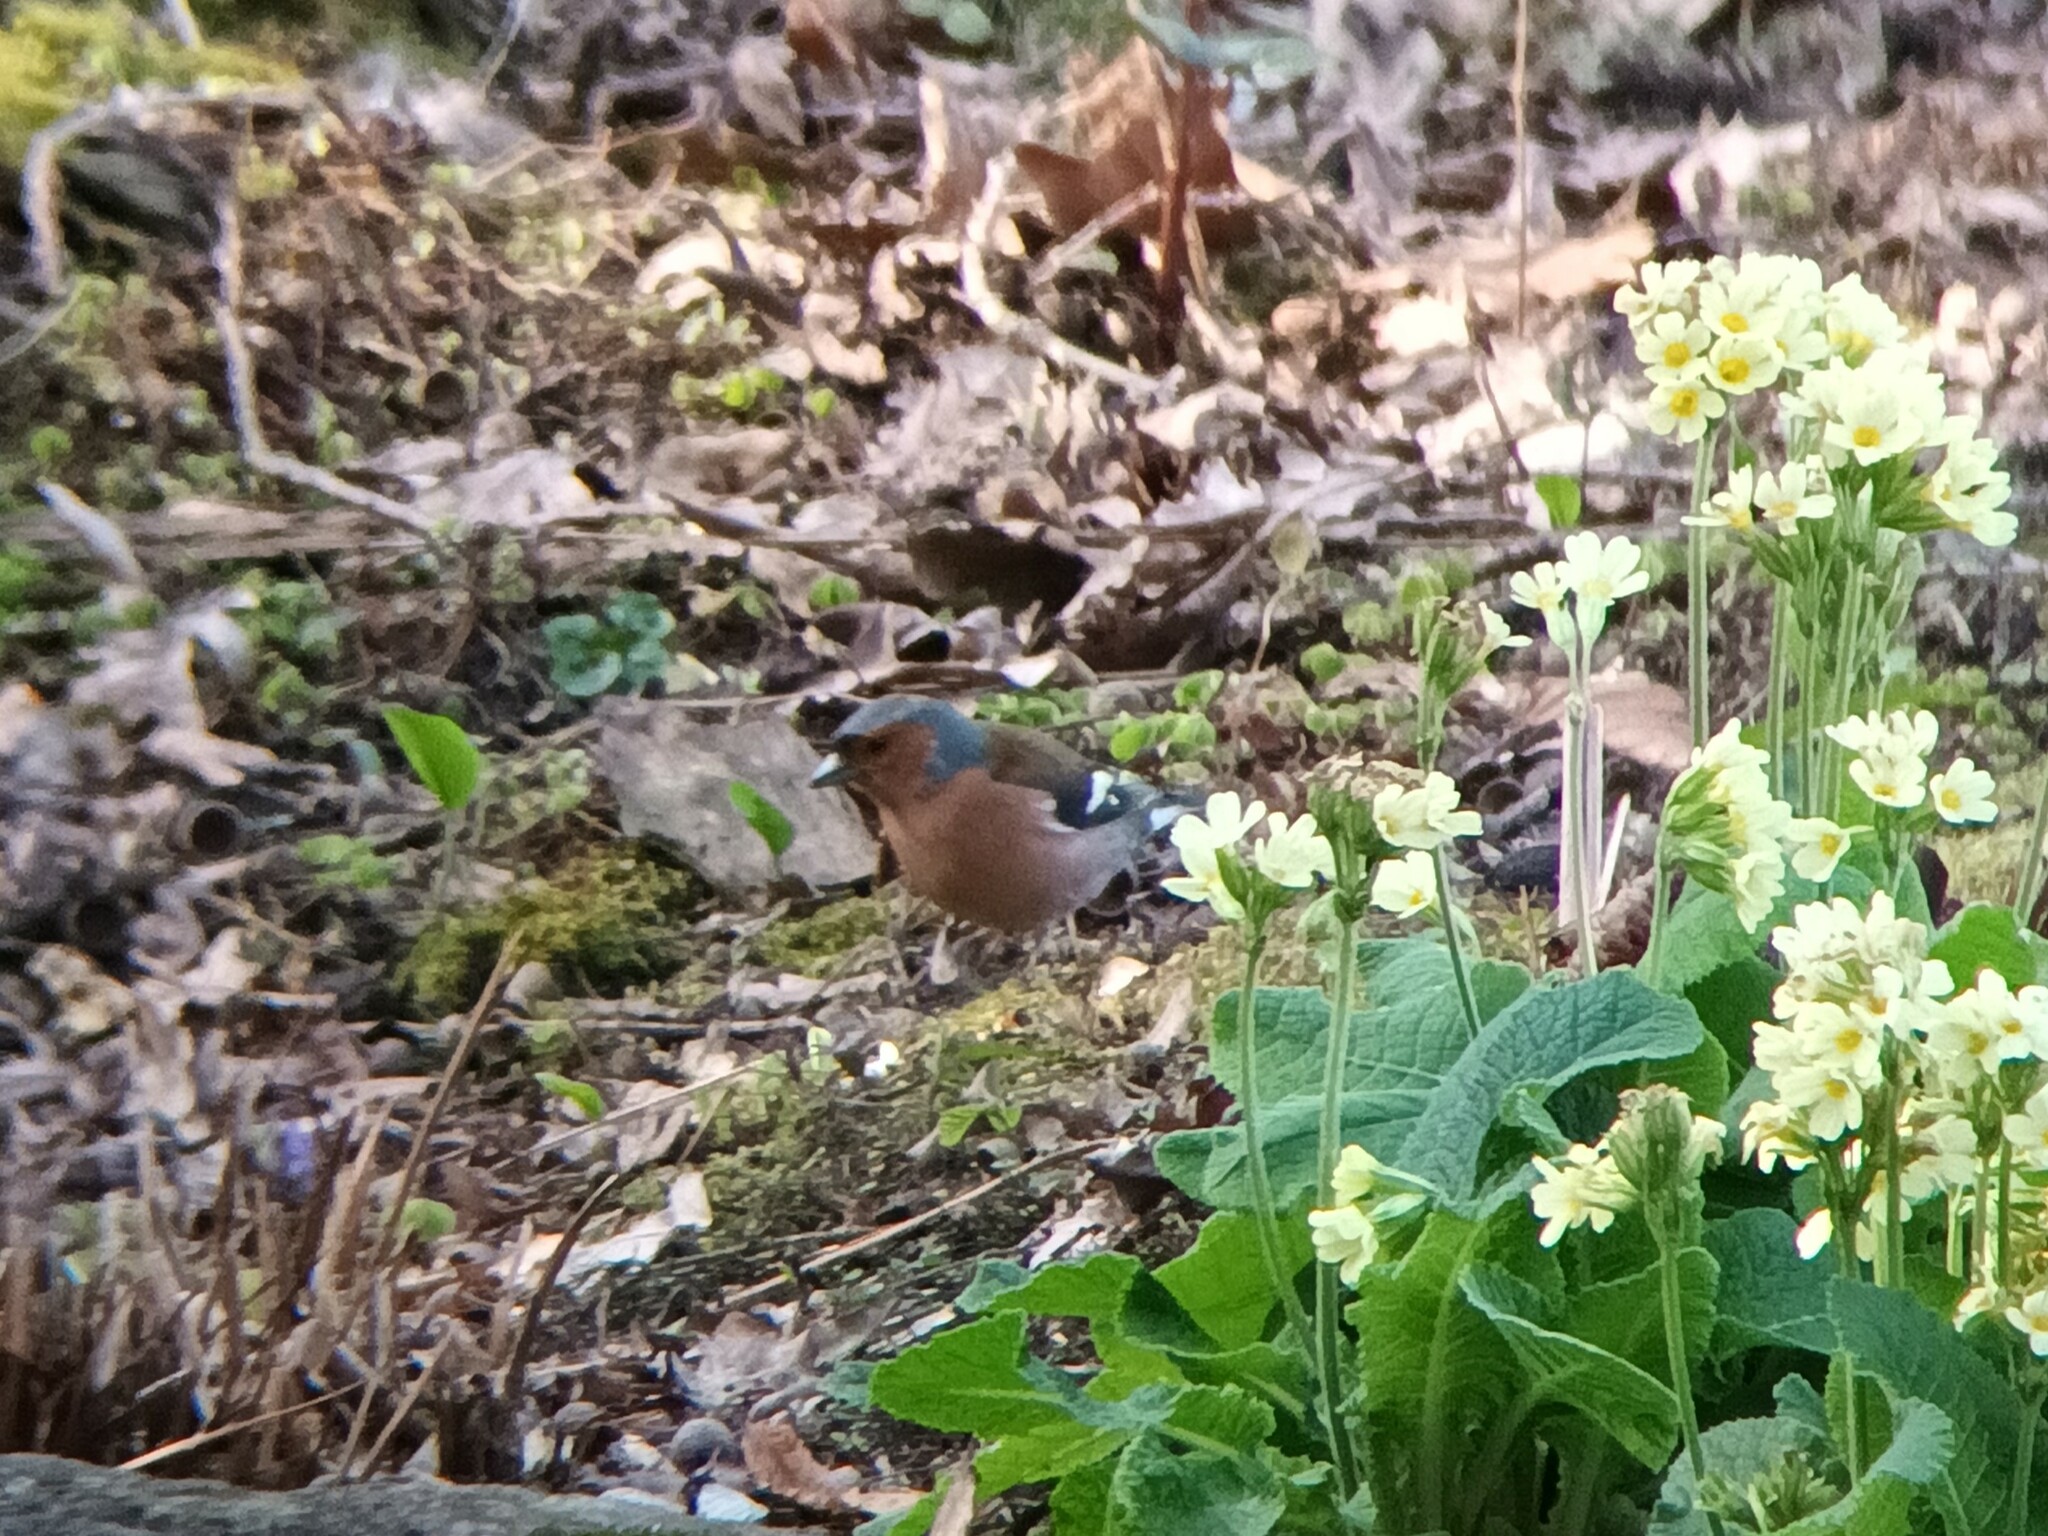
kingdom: Animalia
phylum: Chordata
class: Aves
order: Passeriformes
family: Fringillidae
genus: Fringilla
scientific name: Fringilla coelebs
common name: Common chaffinch
